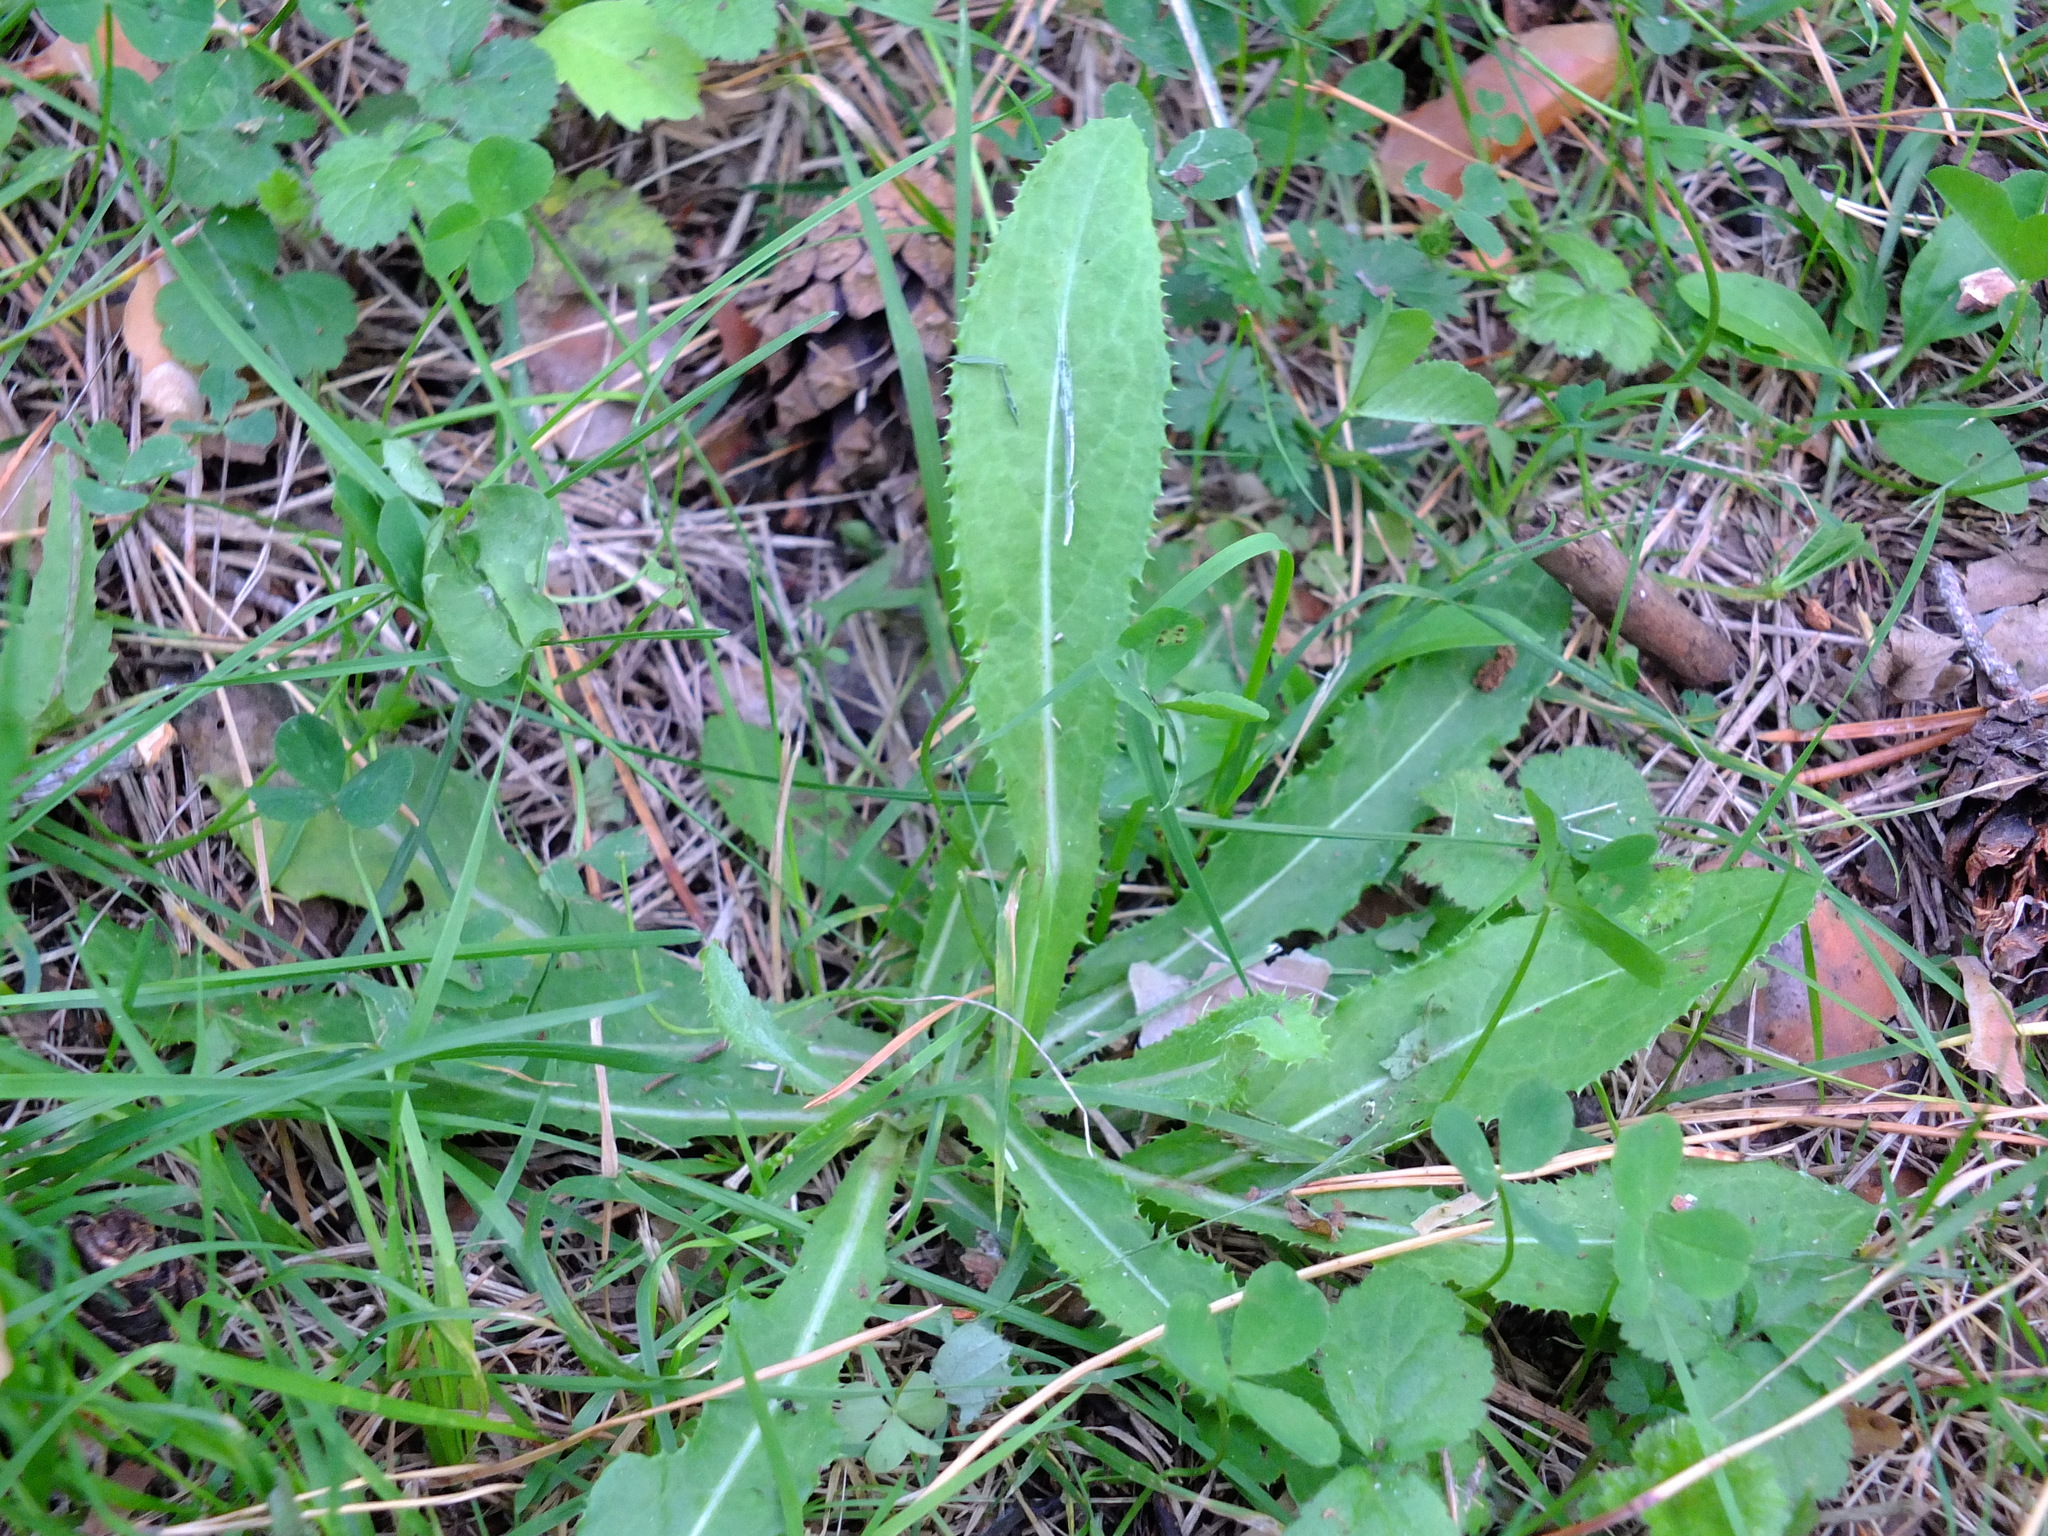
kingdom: Plantae
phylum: Tracheophyta
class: Magnoliopsida
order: Asterales
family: Asteraceae
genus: Sonchus
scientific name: Sonchus arvensis
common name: Perennial sow-thistle
